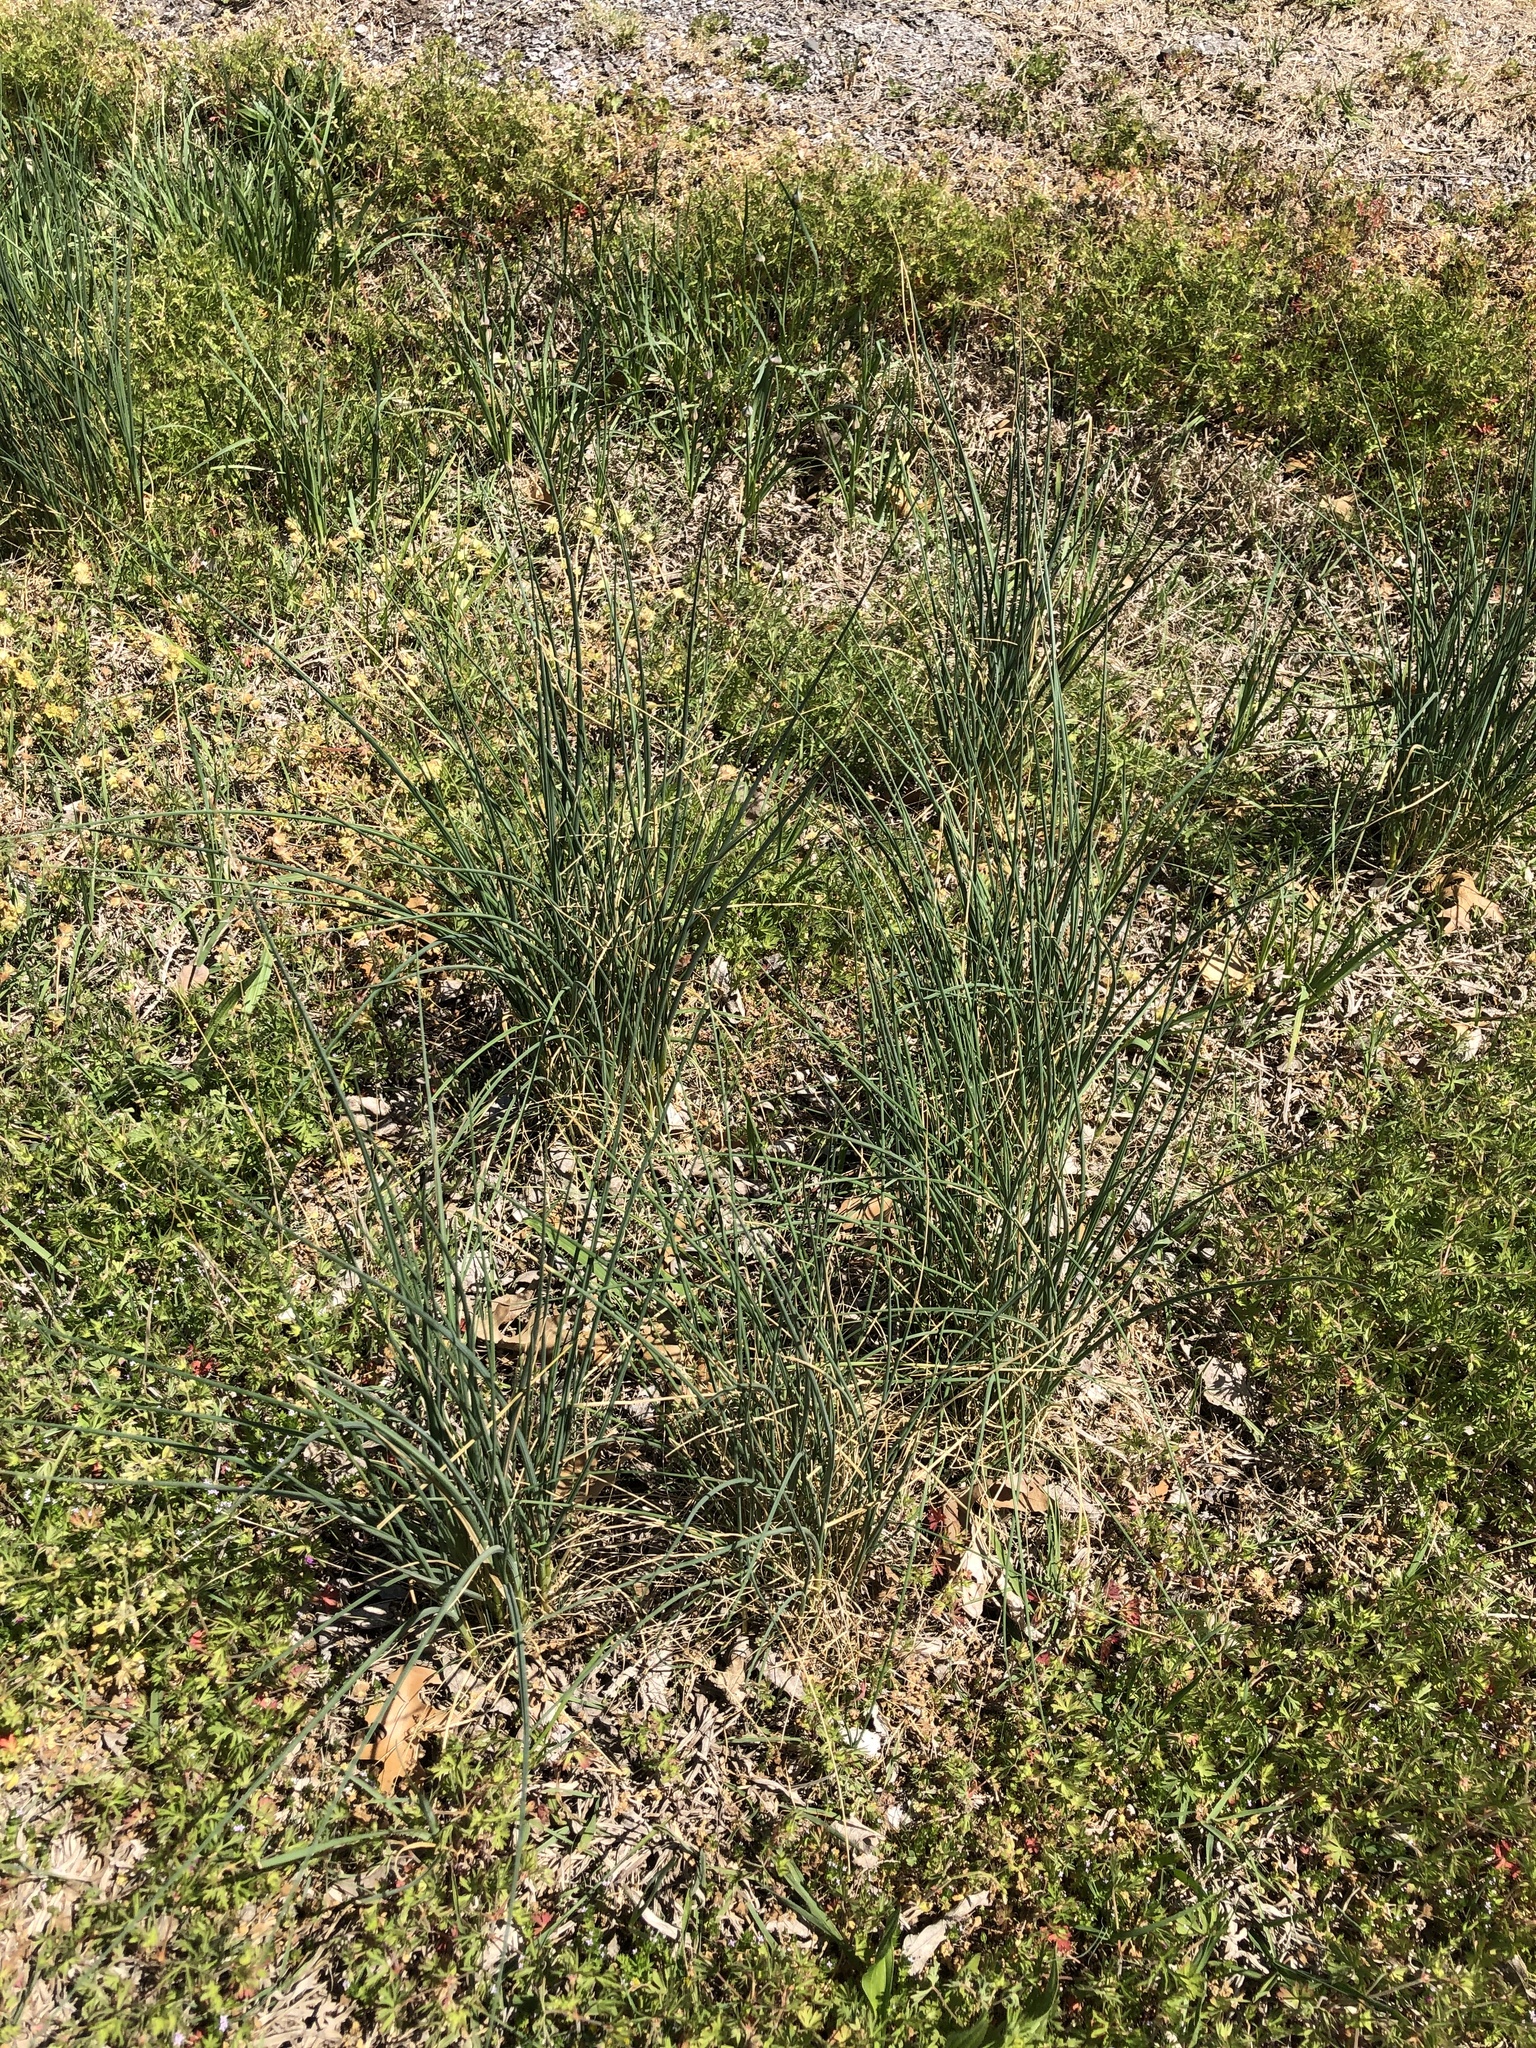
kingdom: Plantae
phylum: Tracheophyta
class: Liliopsida
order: Asparagales
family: Amaryllidaceae
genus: Allium
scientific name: Allium vineale
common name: Crow garlic
